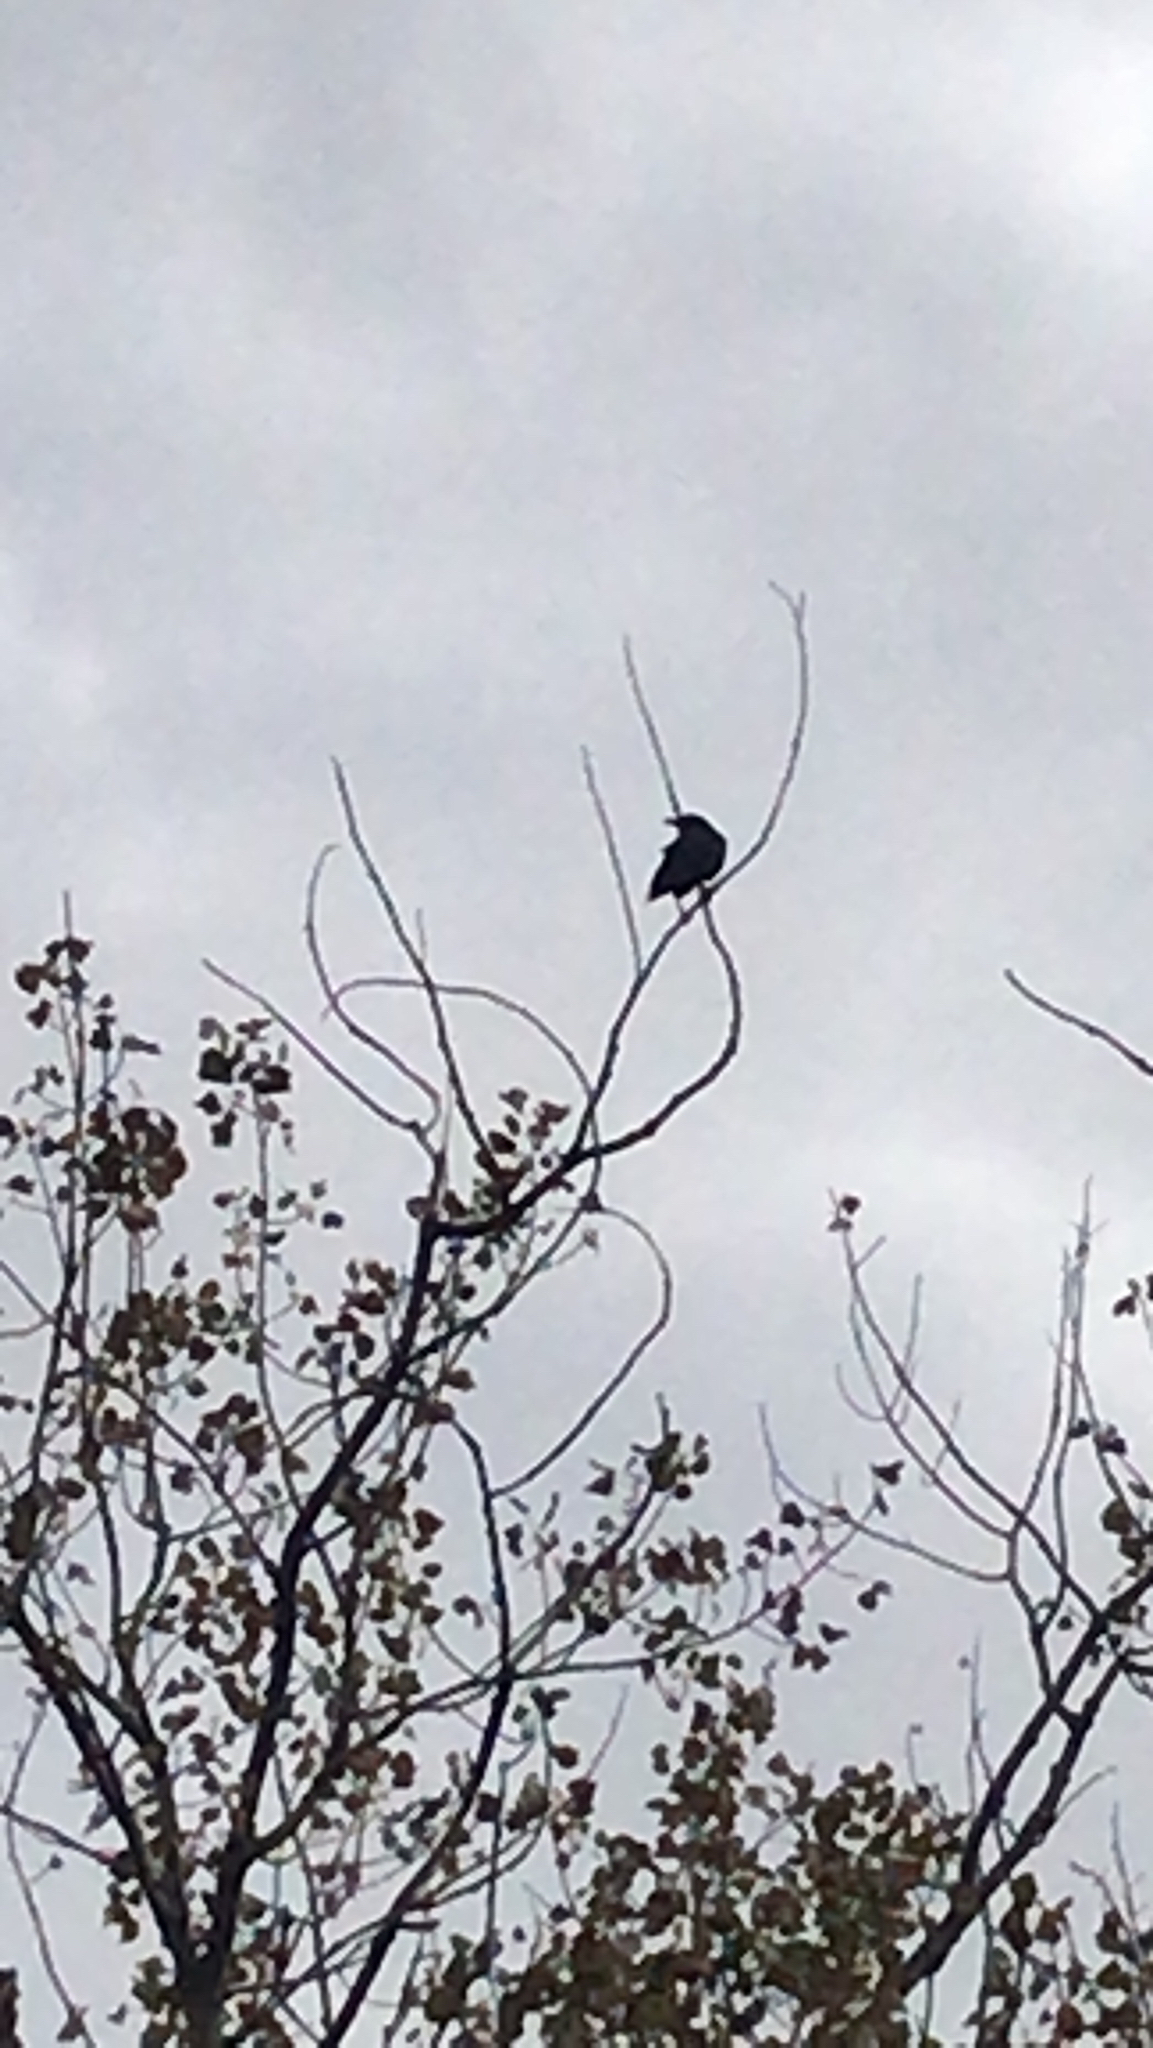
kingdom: Animalia
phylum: Chordata
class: Aves
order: Passeriformes
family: Corvidae
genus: Corvus
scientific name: Corvus brachyrhynchos
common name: American crow
